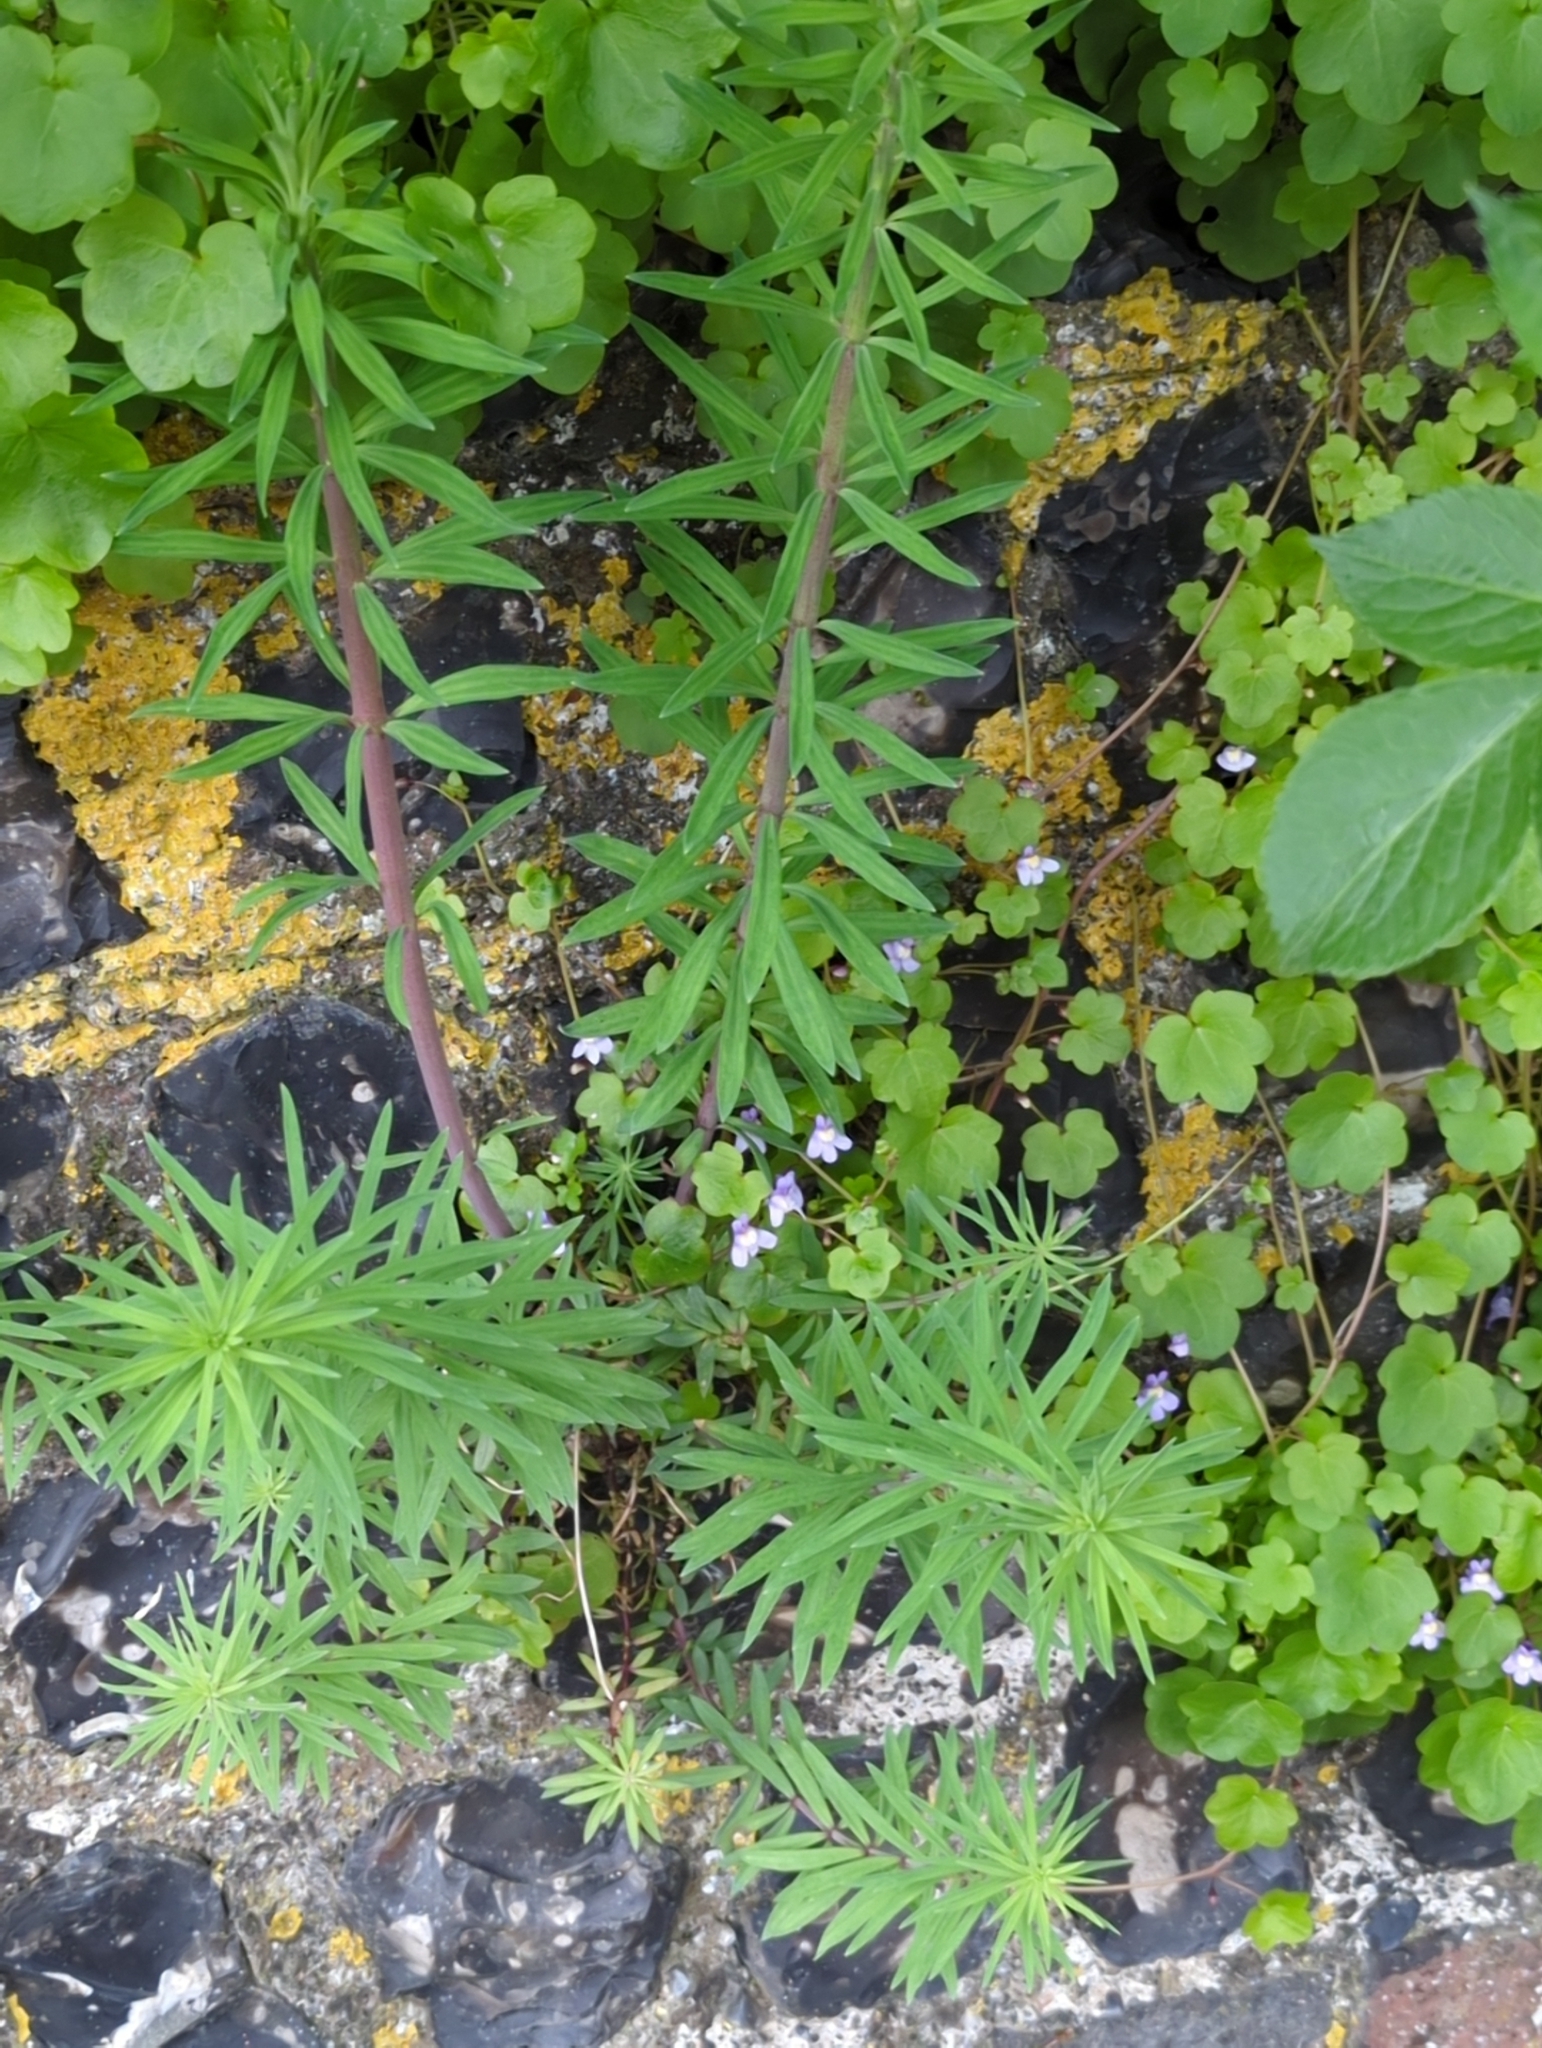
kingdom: Plantae
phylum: Tracheophyta
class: Magnoliopsida
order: Lamiales
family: Plantaginaceae
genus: Linaria
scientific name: Linaria purpurea
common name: Purple toadflax
